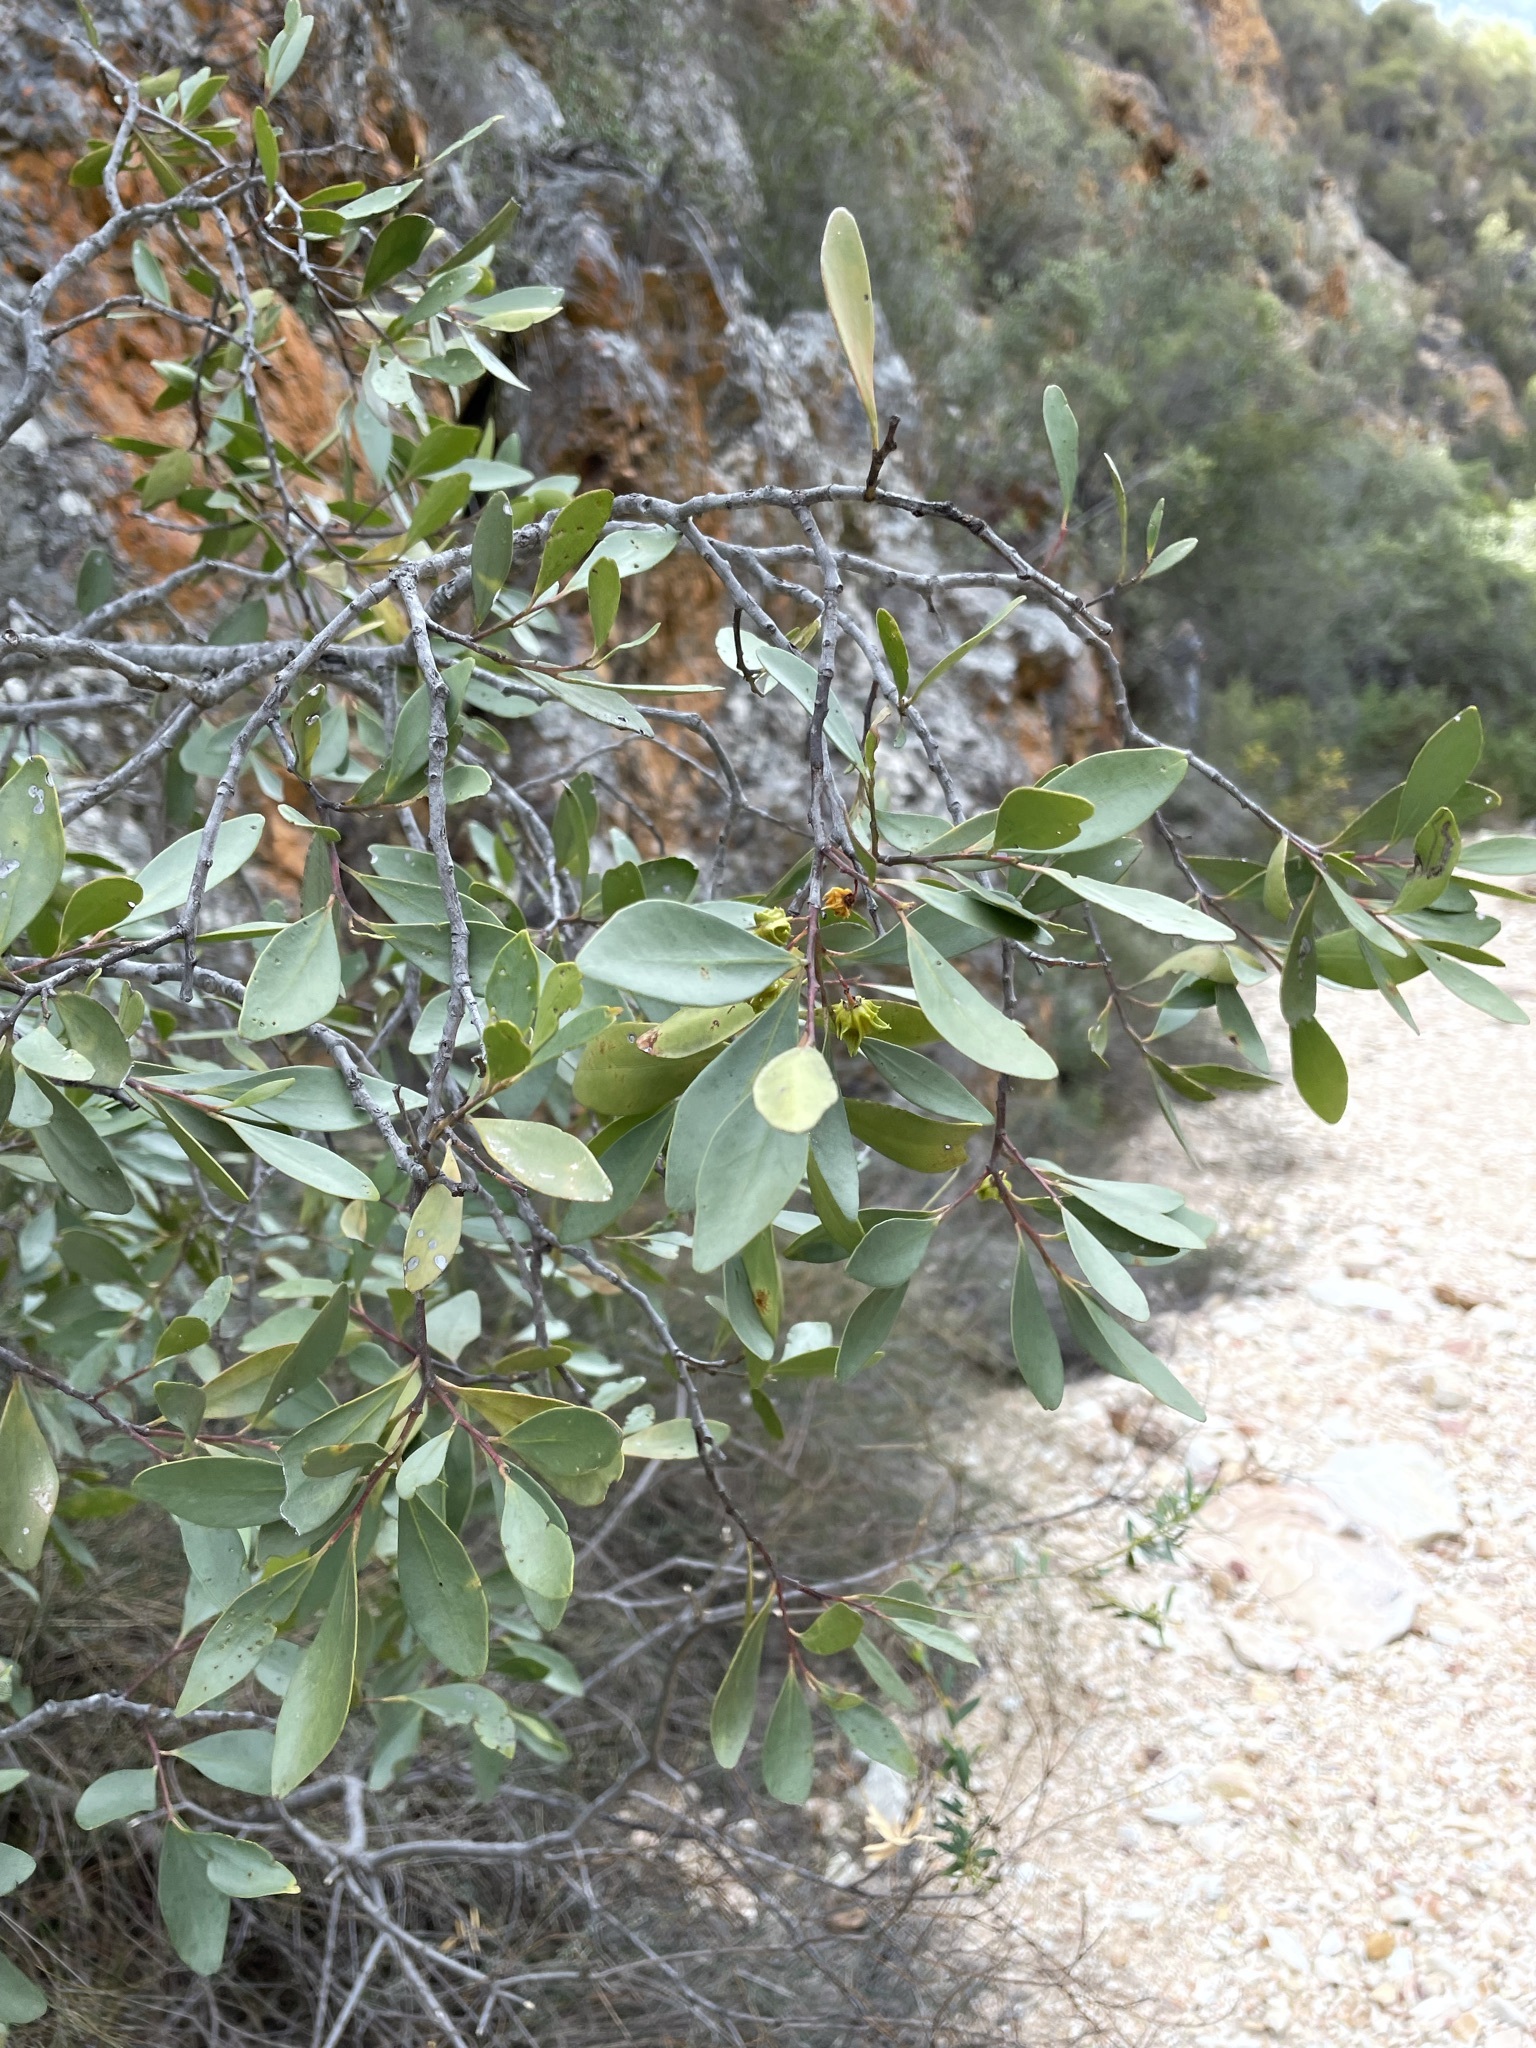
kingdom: Plantae
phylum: Tracheophyta
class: Magnoliopsida
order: Celastrales
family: Celastraceae
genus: Pterocelastrus
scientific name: Pterocelastrus tricuspidatus
